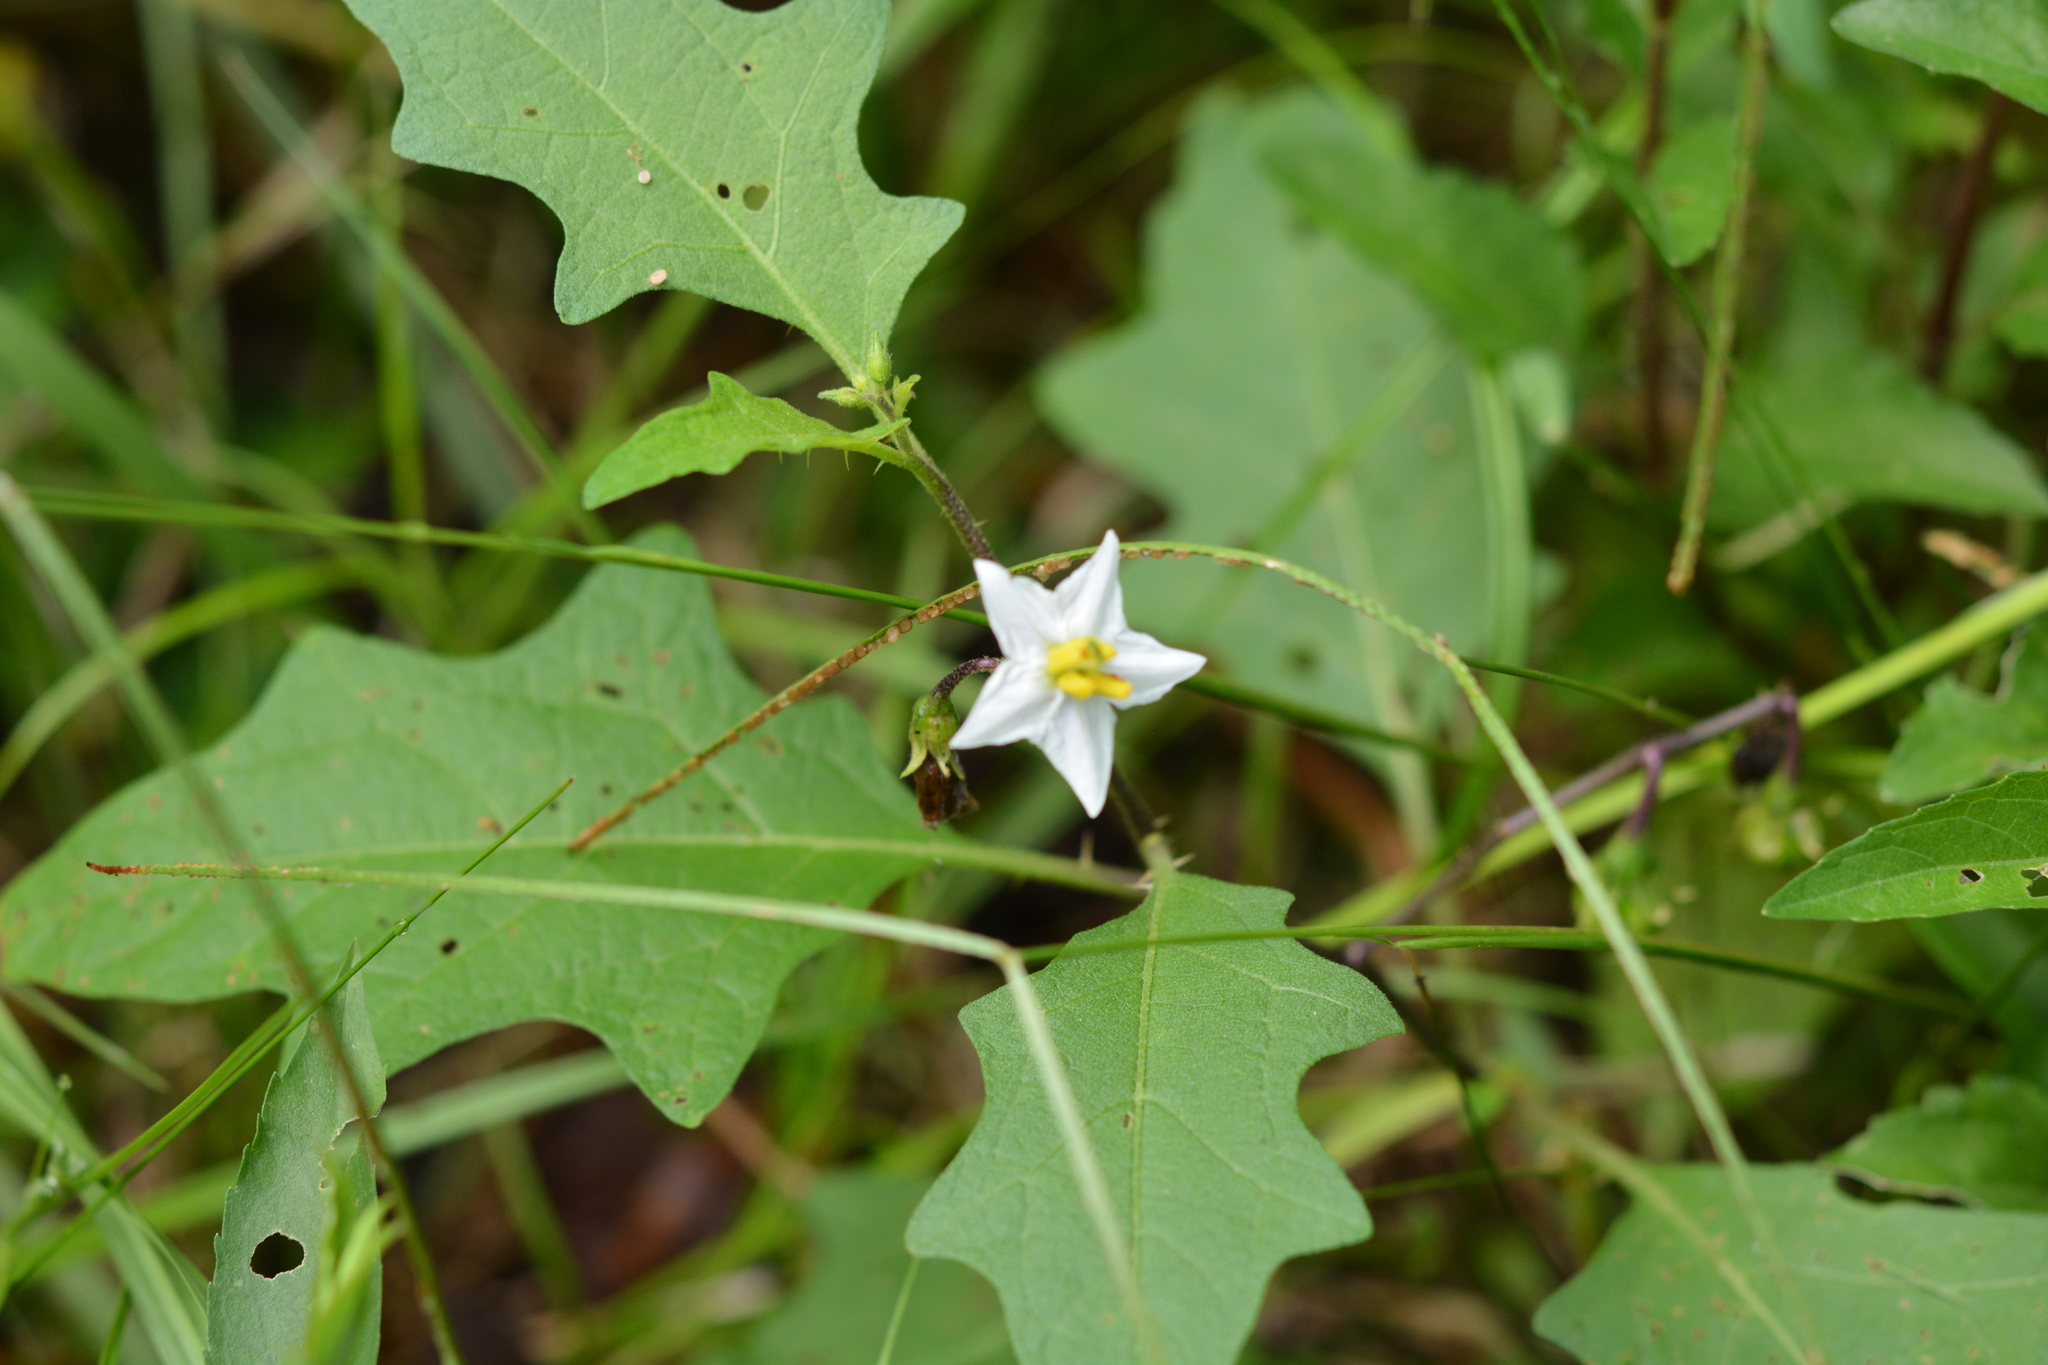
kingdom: Plantae
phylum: Tracheophyta
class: Magnoliopsida
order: Solanales
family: Solanaceae
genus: Solanum
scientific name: Solanum carolinense
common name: Horse-nettle
